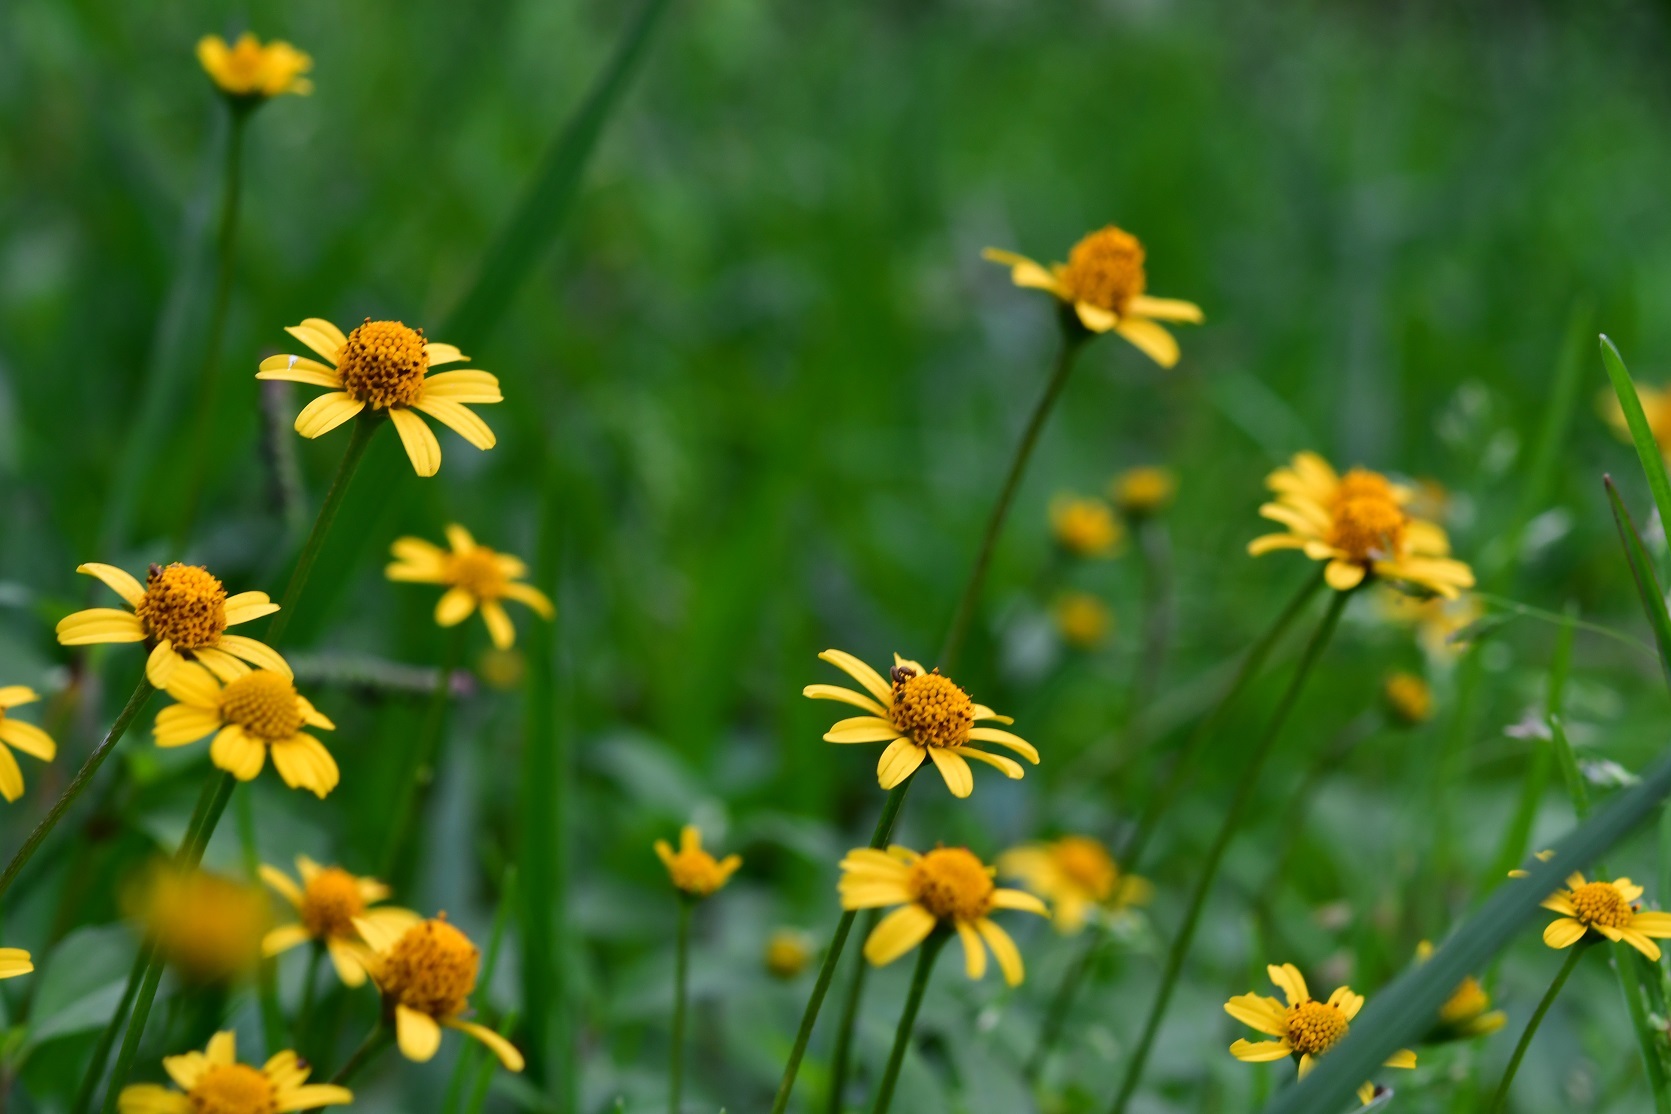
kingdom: Plantae
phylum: Tracheophyta
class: Magnoliopsida
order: Asterales
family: Asteraceae
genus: Acmella
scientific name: Acmella repens
